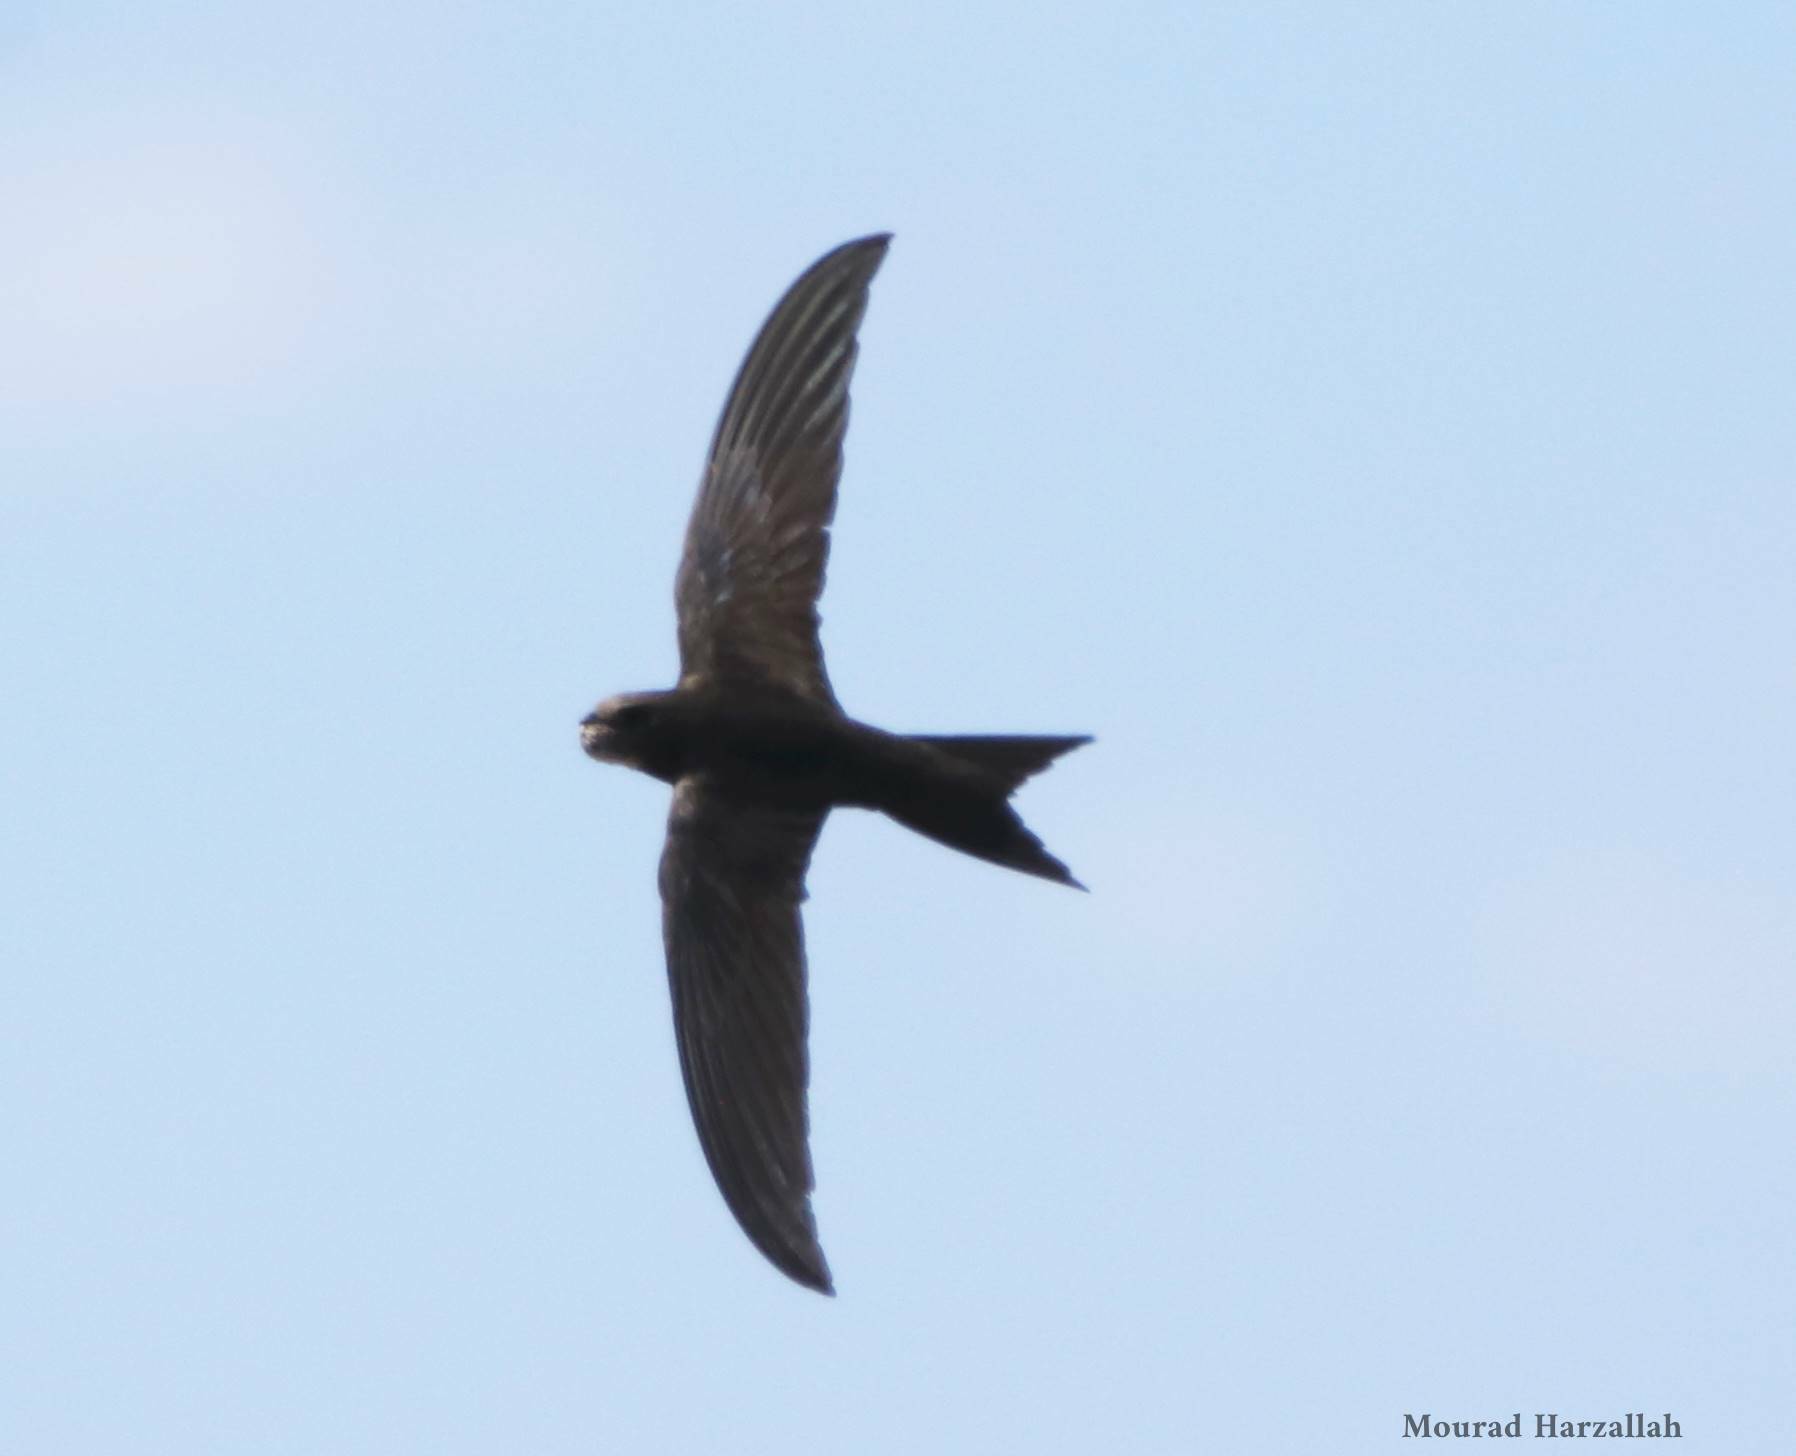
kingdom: Animalia
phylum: Chordata
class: Aves
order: Apodiformes
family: Apodidae
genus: Apus
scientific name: Apus apus
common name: Common swift
